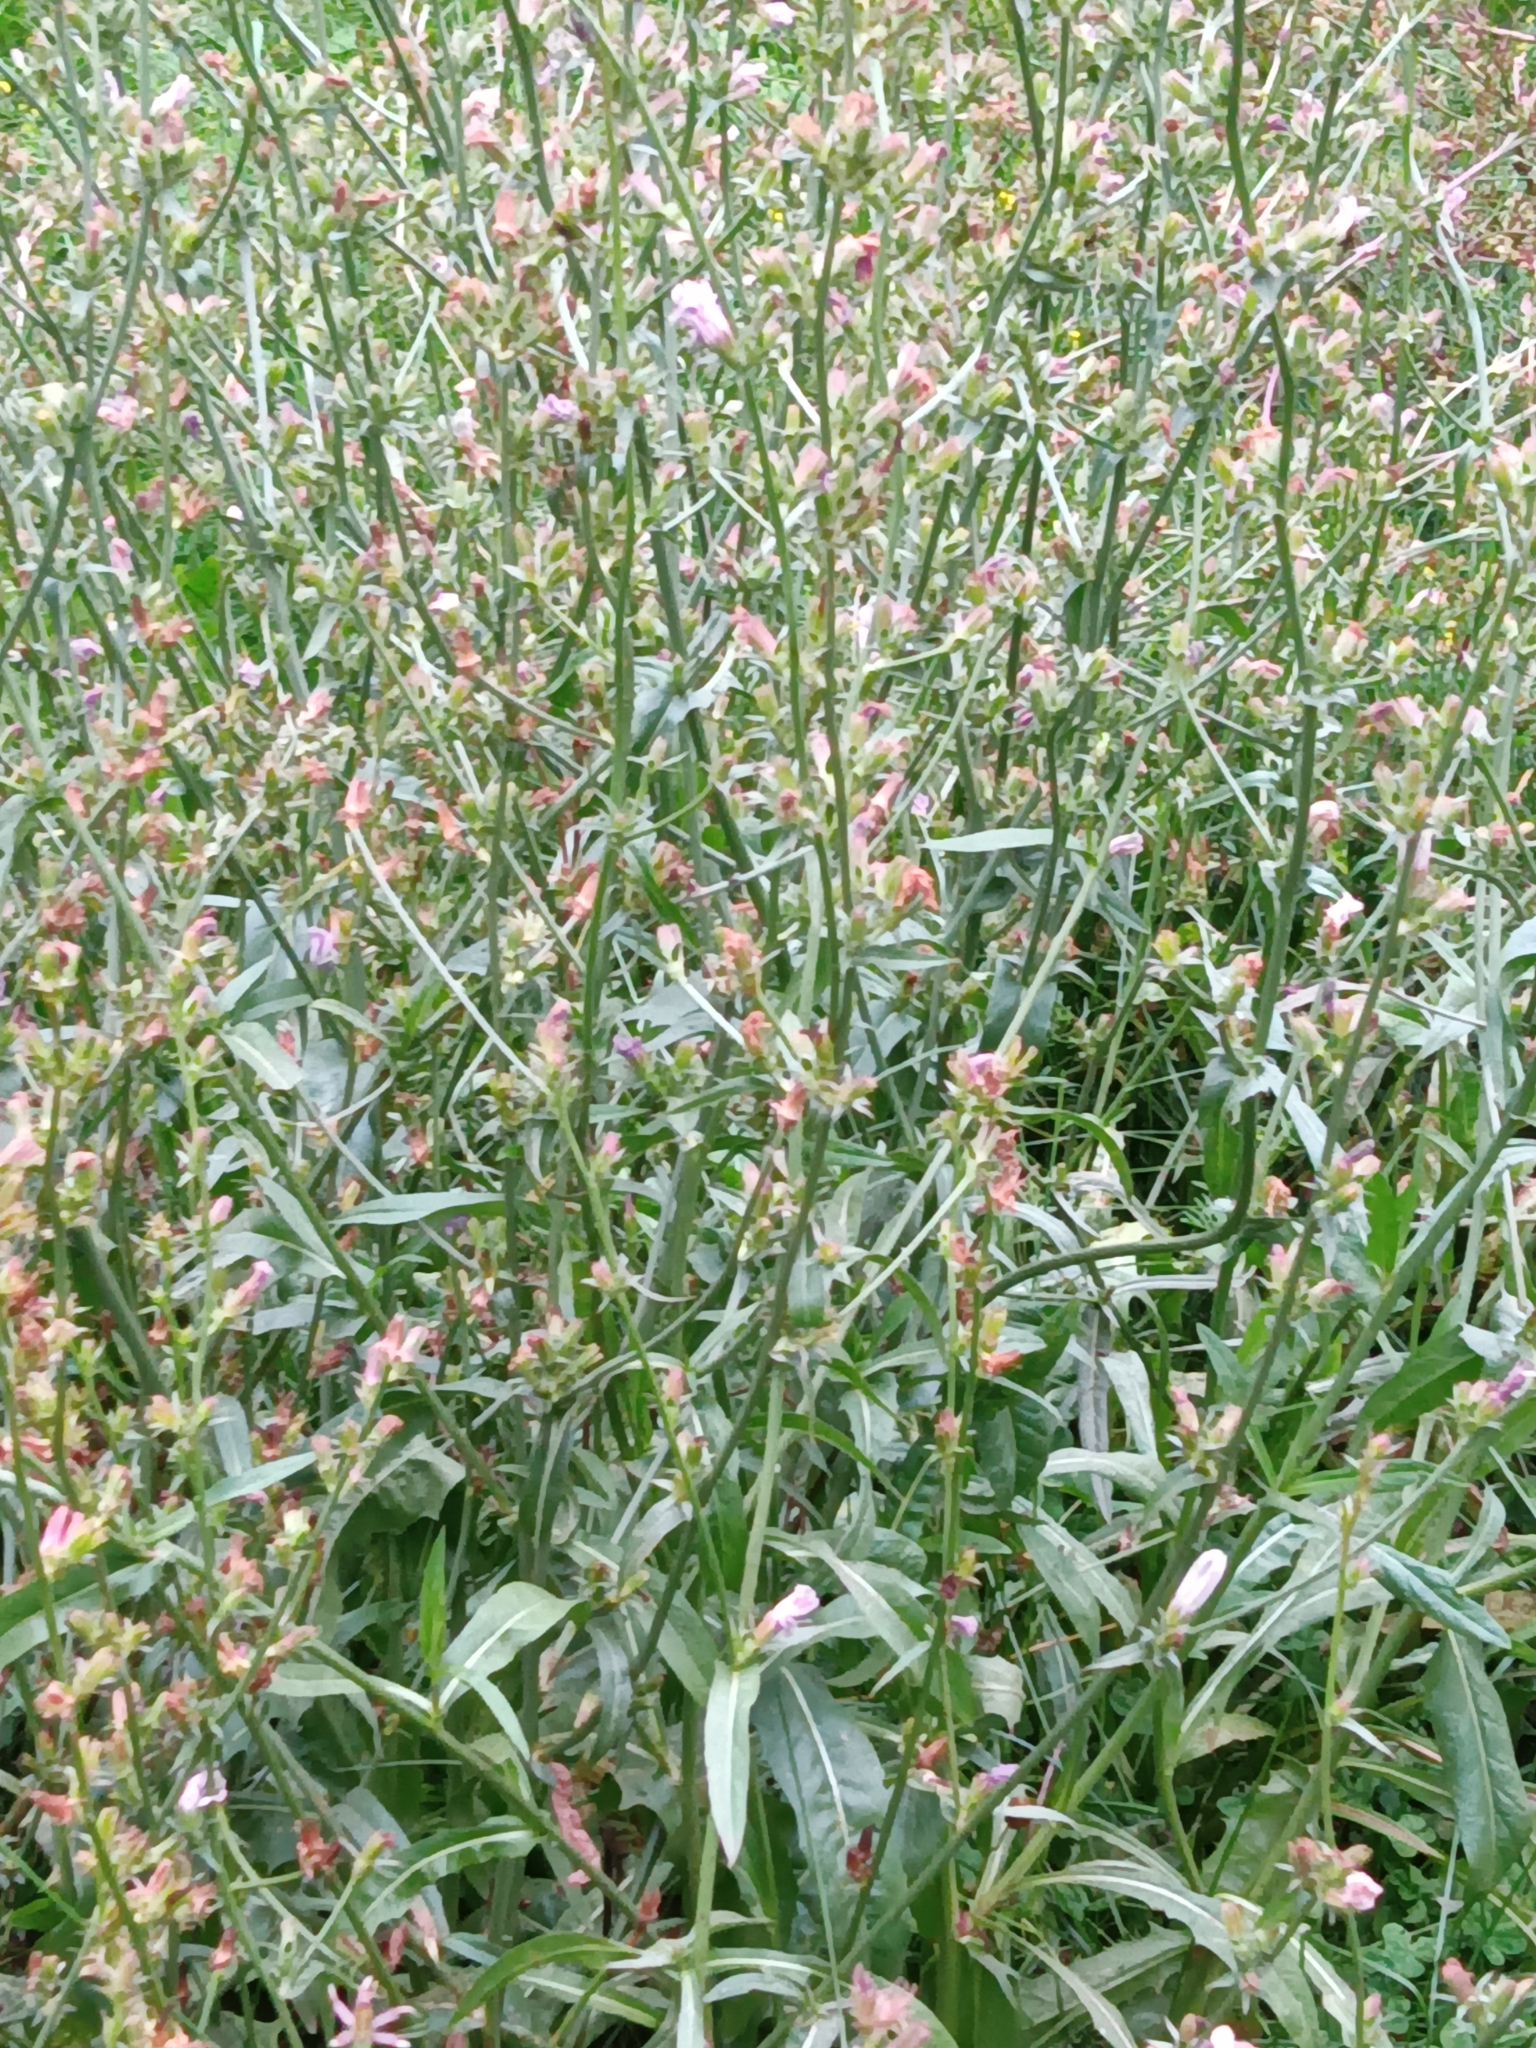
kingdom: Plantae
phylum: Tracheophyta
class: Magnoliopsida
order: Asterales
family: Asteraceae
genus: Cichorium
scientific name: Cichorium intybus
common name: Chicory
